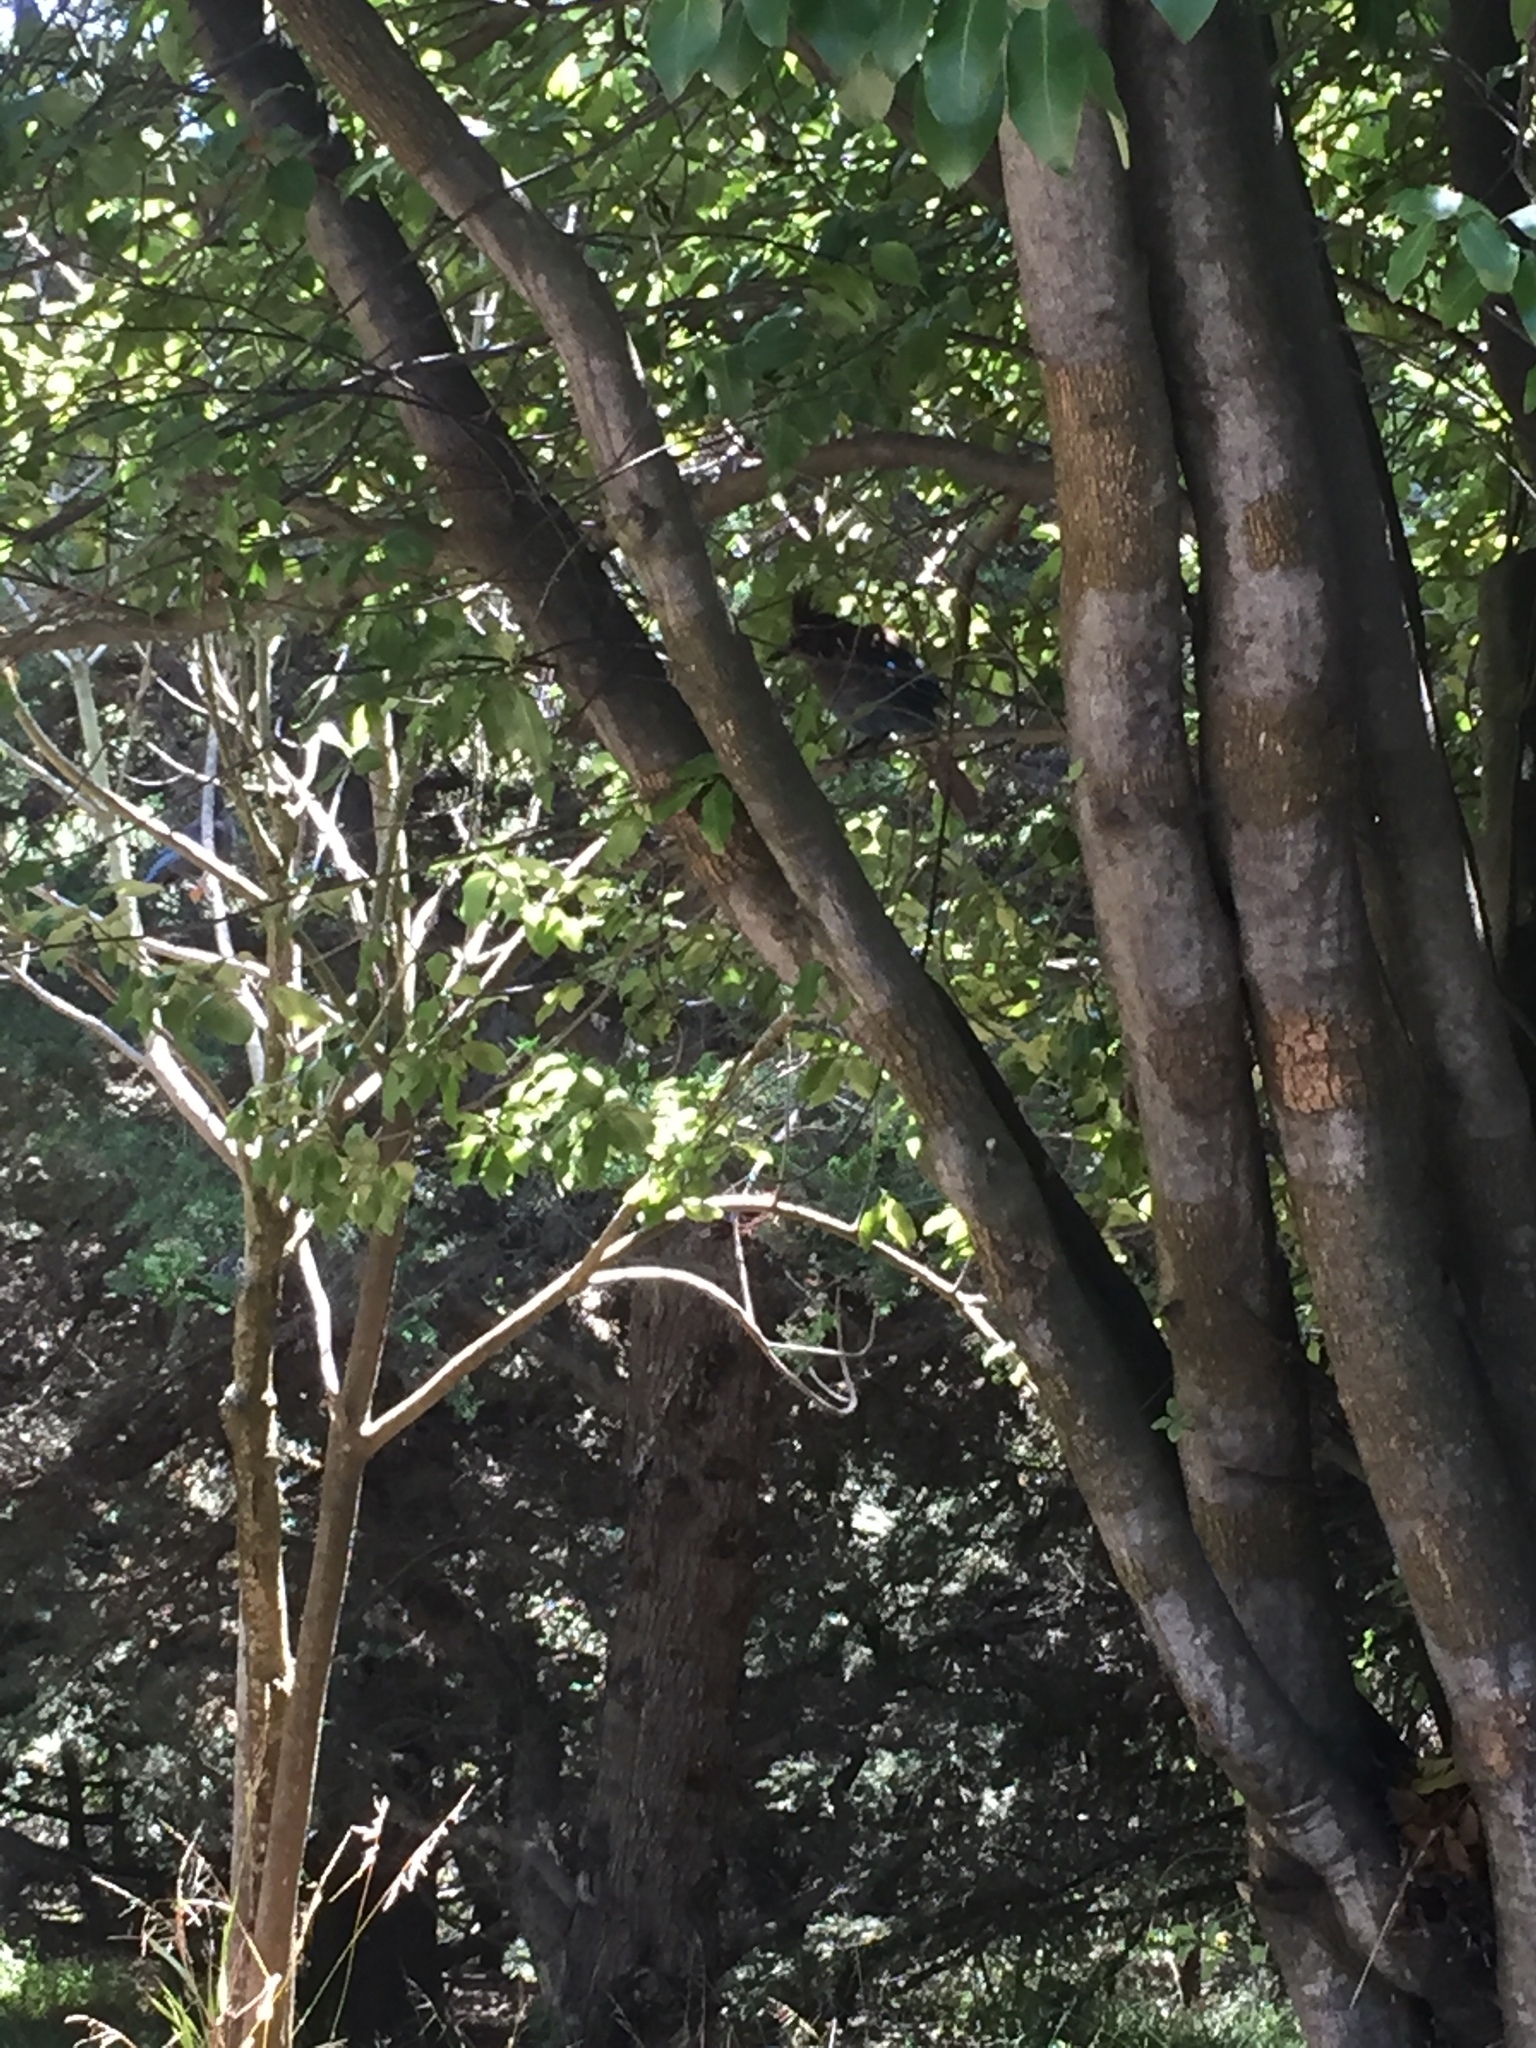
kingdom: Animalia
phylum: Chordata
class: Aves
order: Passeriformes
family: Corvidae
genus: Cyanocitta
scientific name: Cyanocitta stelleri
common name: Steller's jay
